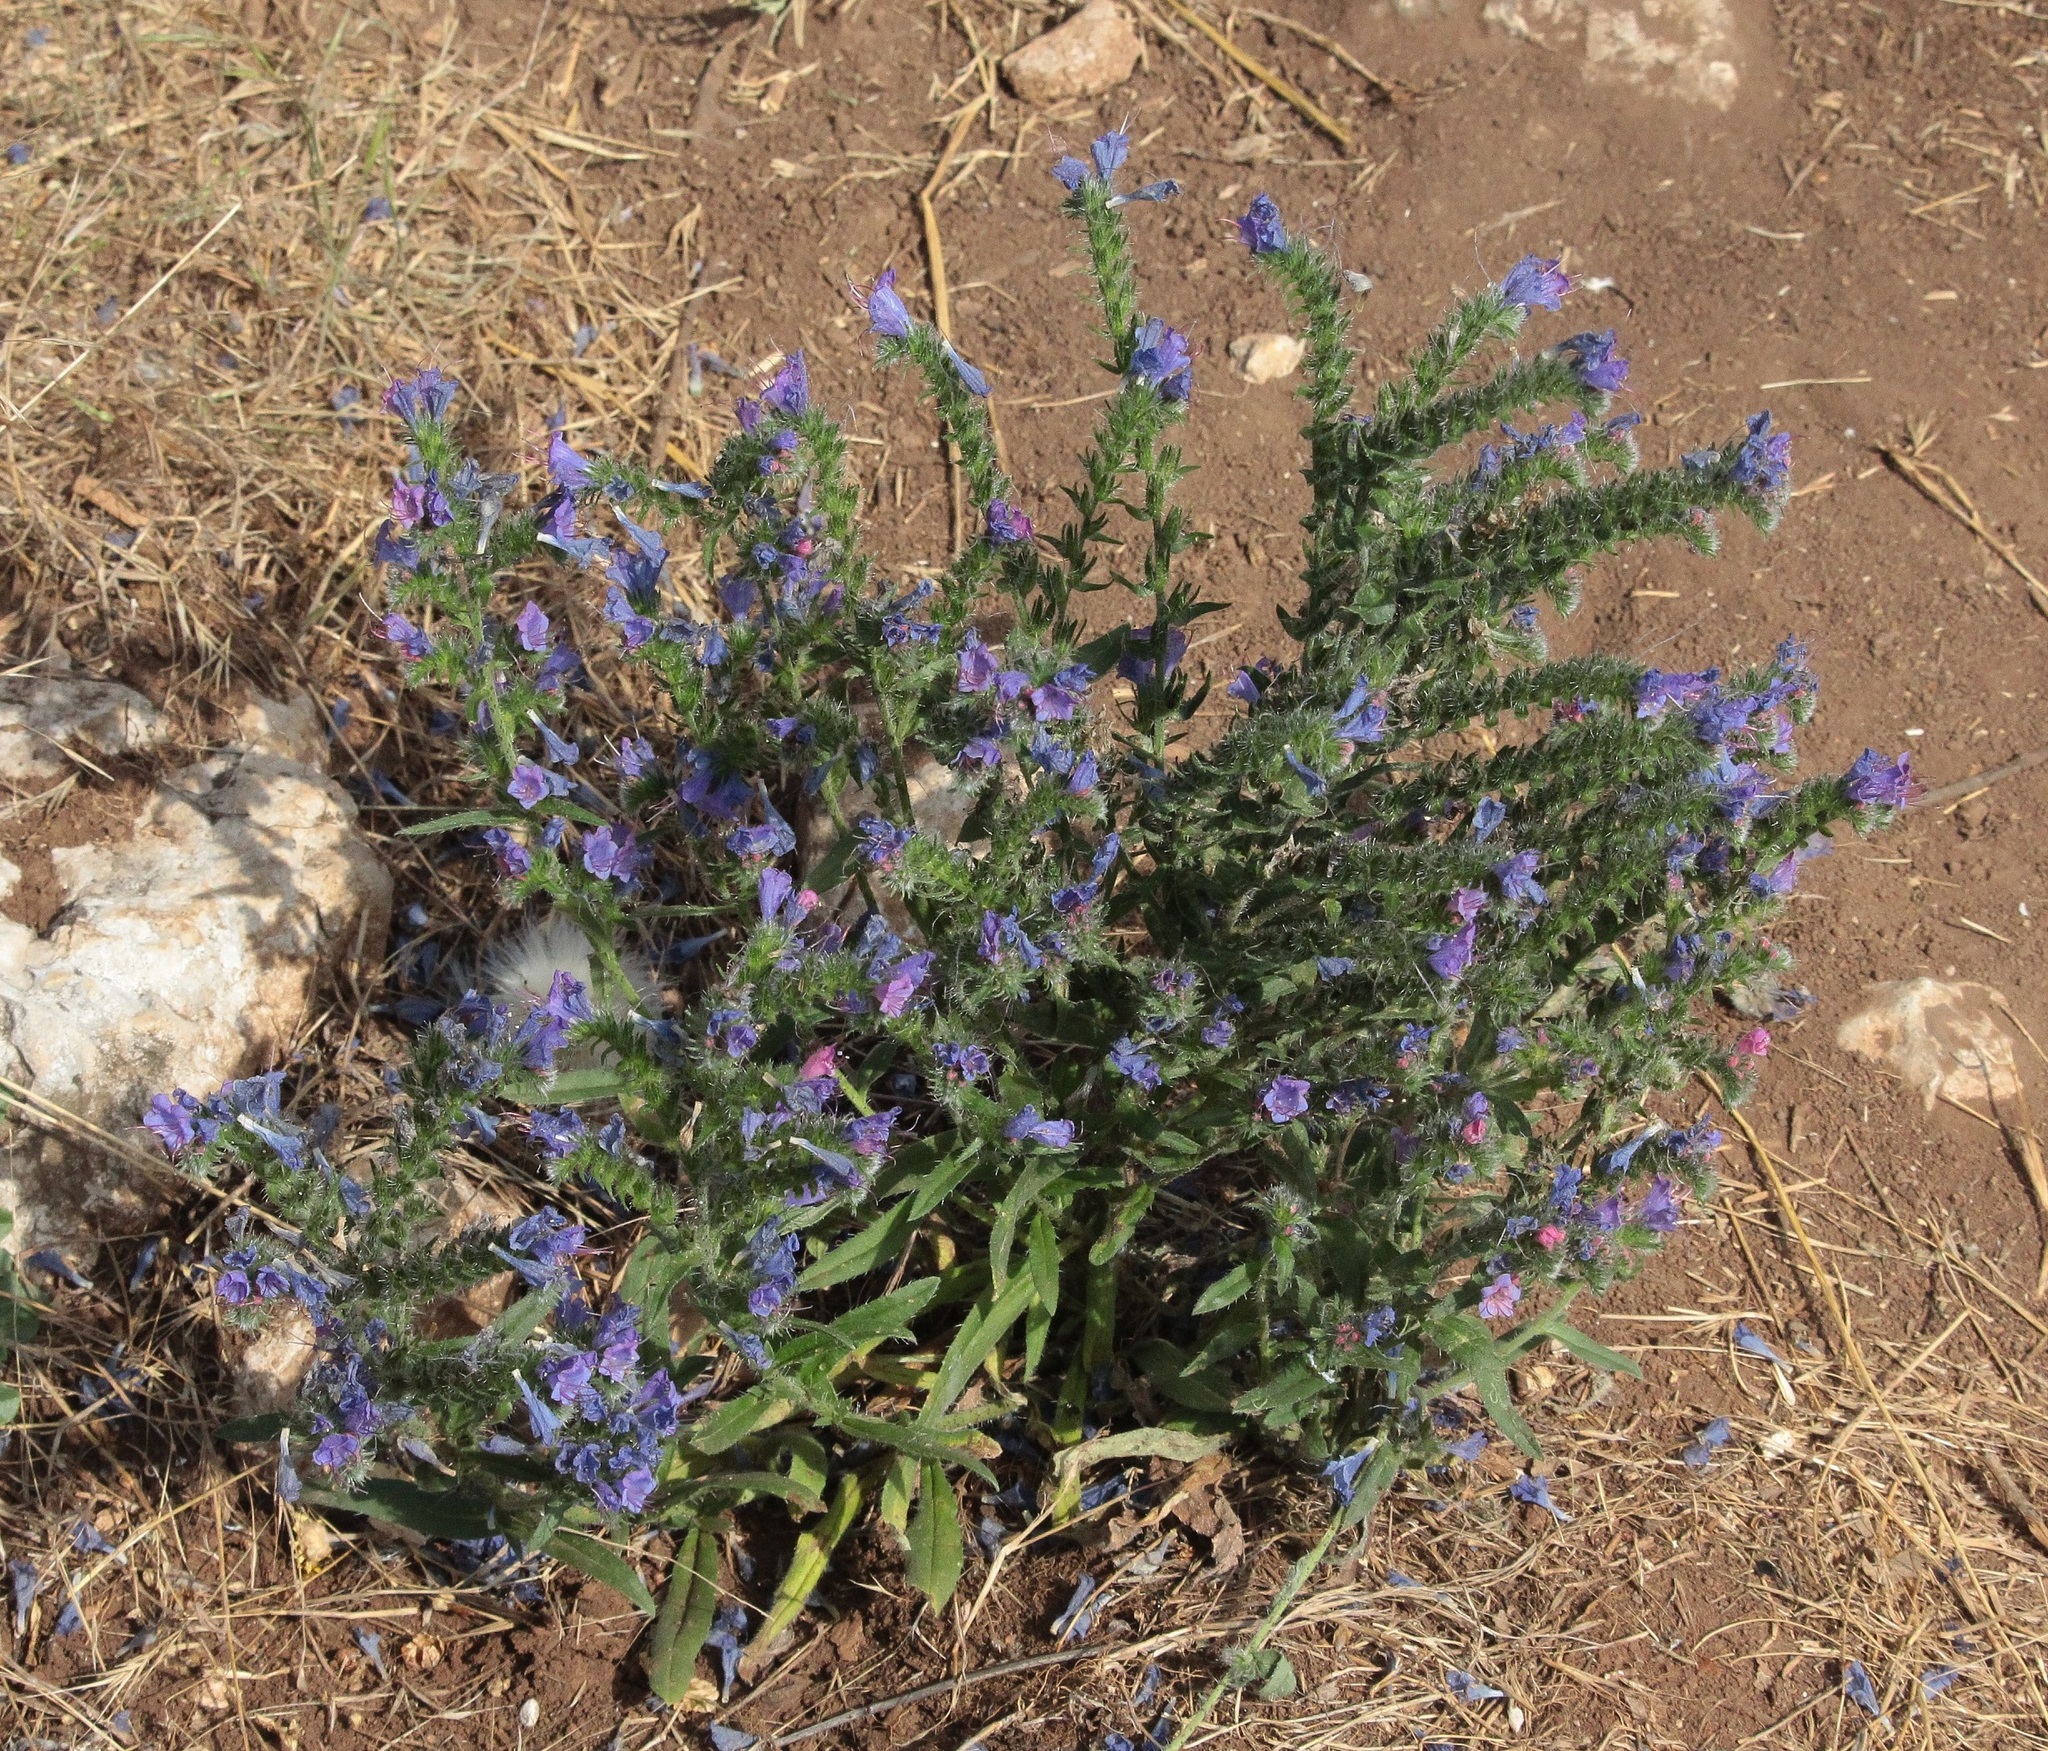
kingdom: Plantae
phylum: Tracheophyta
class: Magnoliopsida
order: Boraginales
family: Boraginaceae
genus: Echium
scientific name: Echium vulgare
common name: Common viper's bugloss
